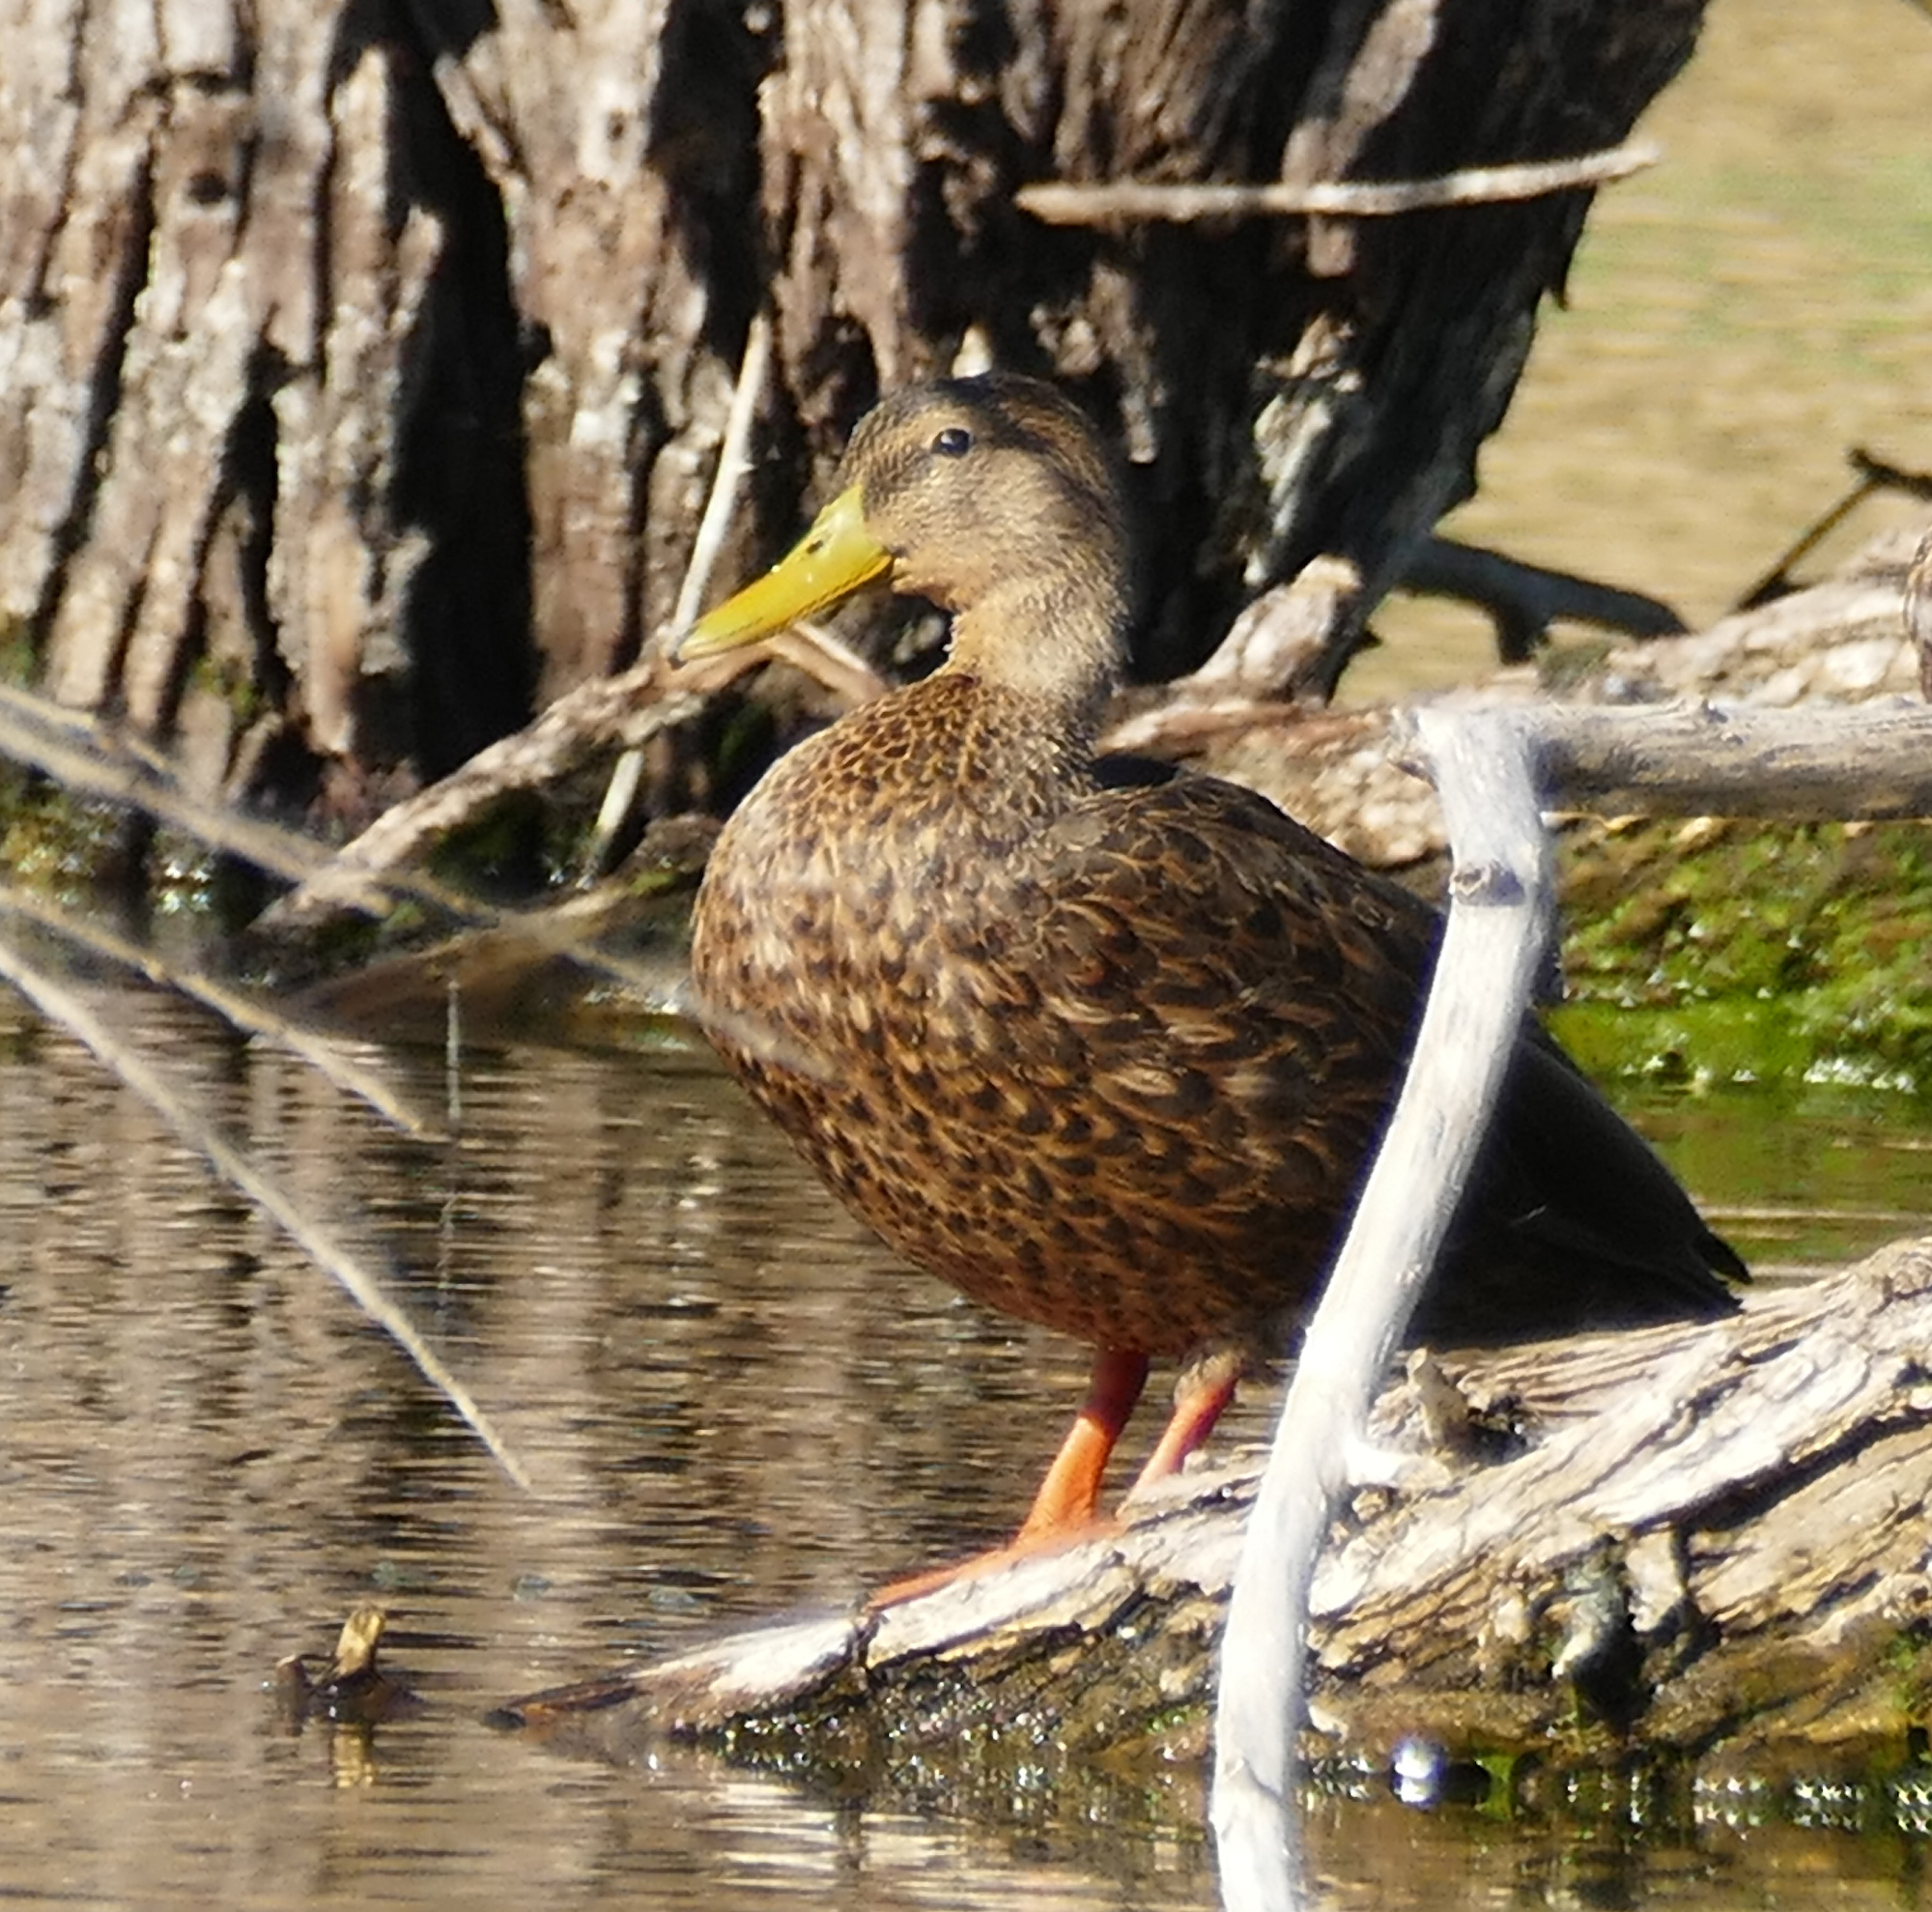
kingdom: Animalia
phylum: Chordata
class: Aves
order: Anseriformes
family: Anatidae
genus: Anas
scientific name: Anas diazi
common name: Mexican duck
